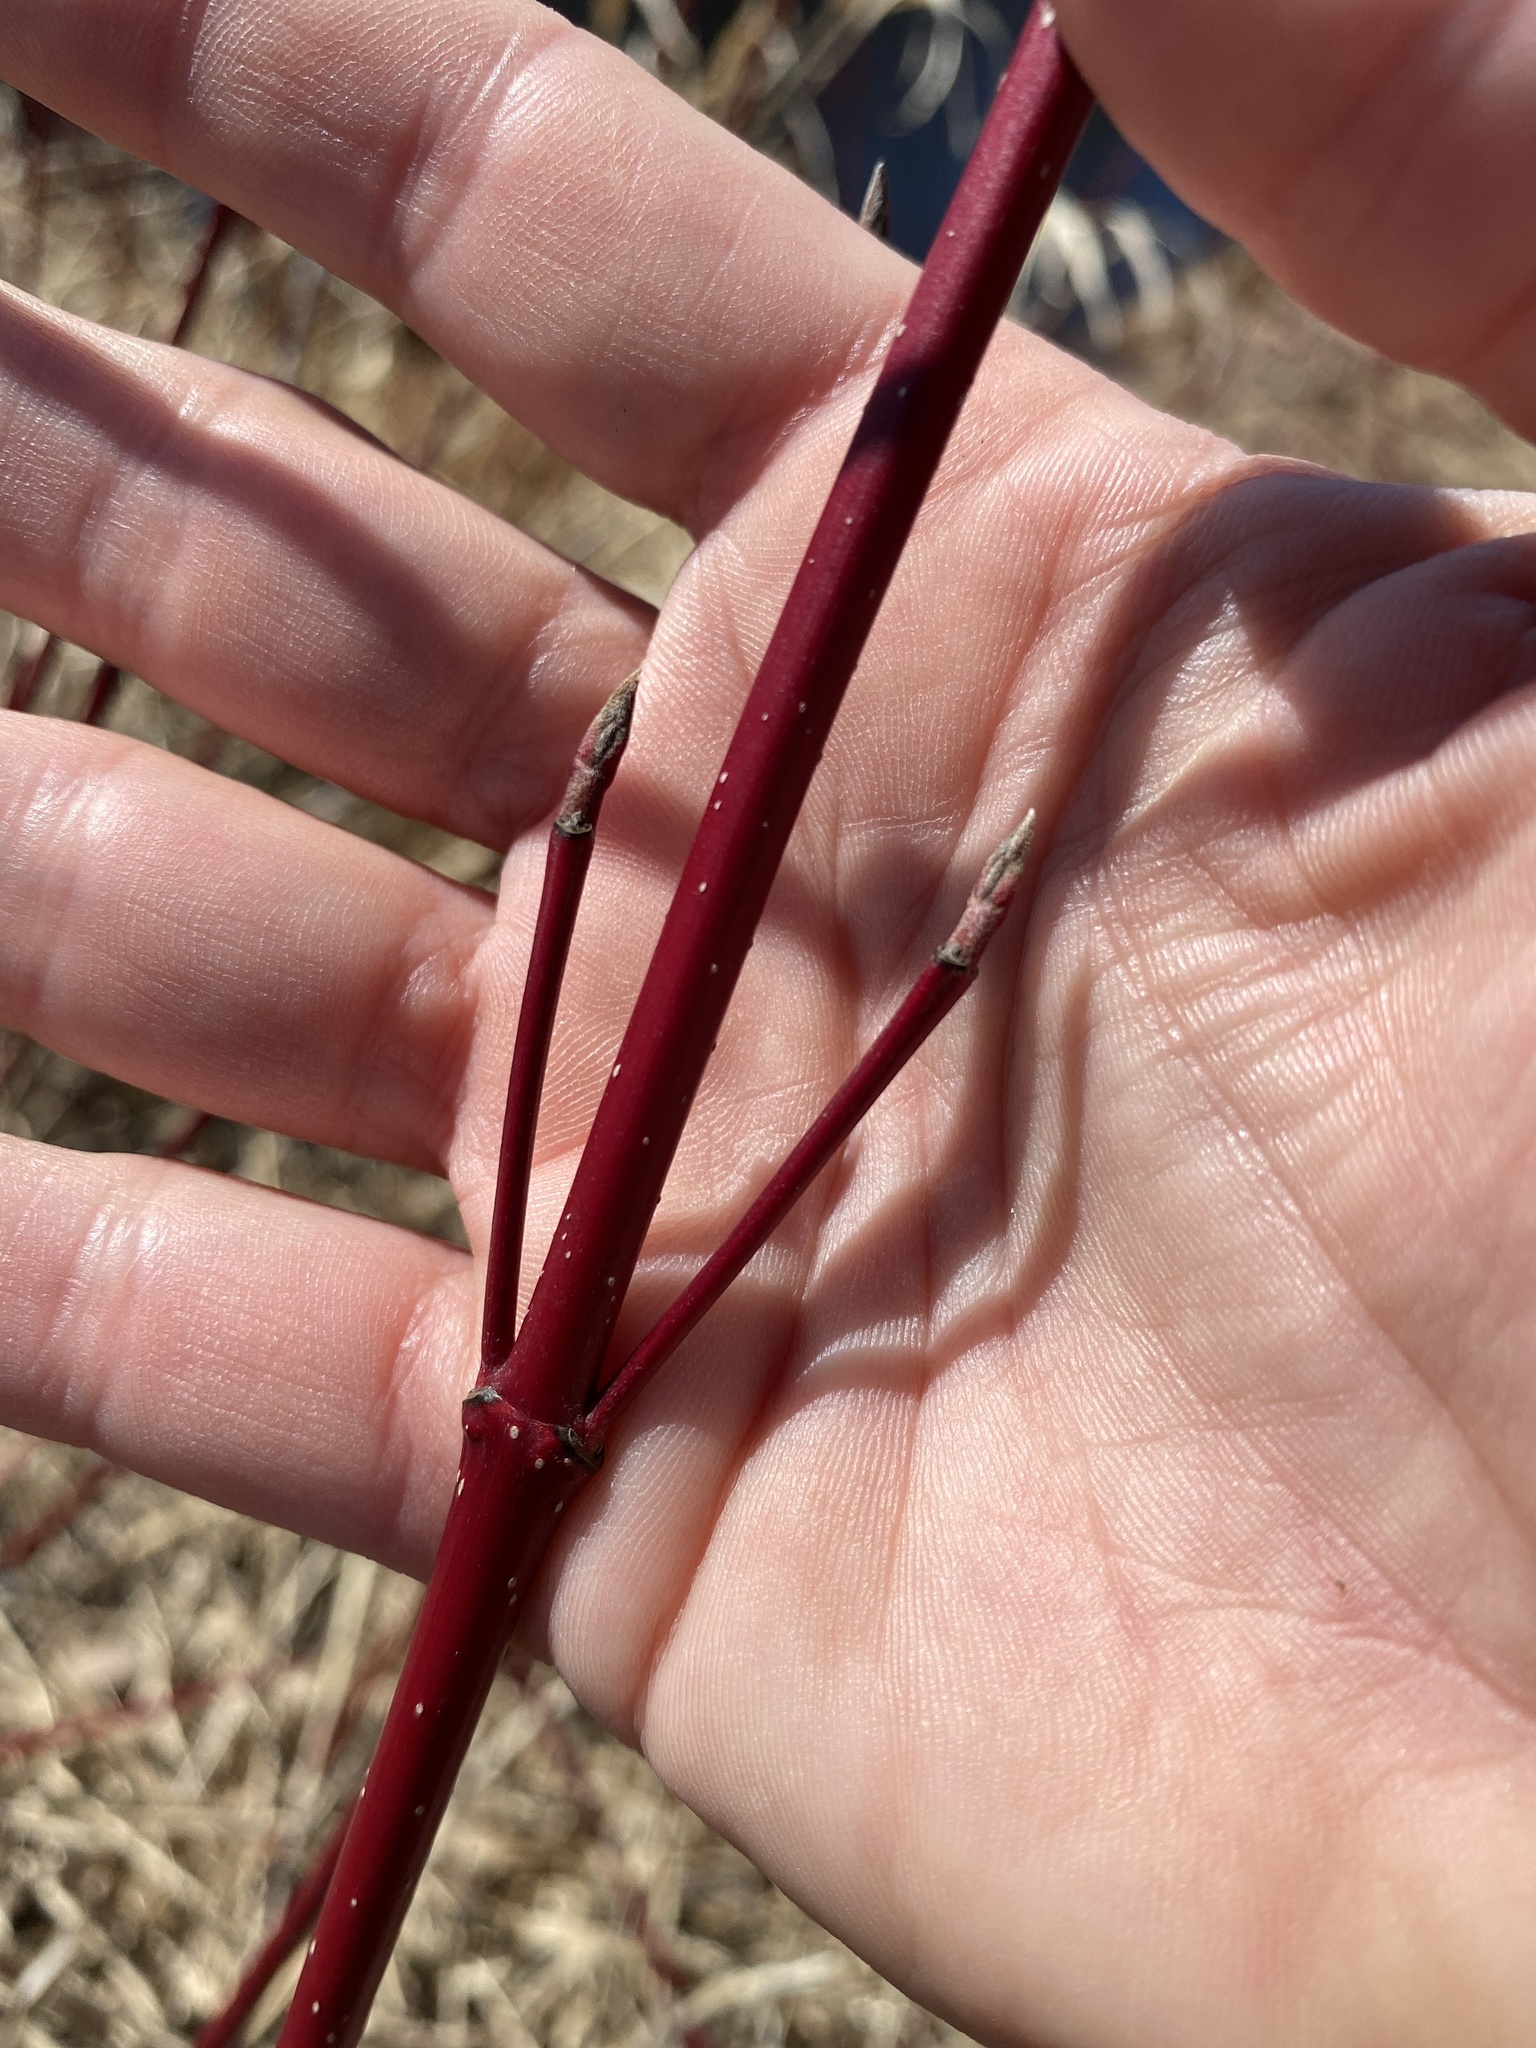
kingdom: Plantae
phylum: Tracheophyta
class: Magnoliopsida
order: Cornales
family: Cornaceae
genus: Cornus
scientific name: Cornus sericea
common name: Red-osier dogwood
